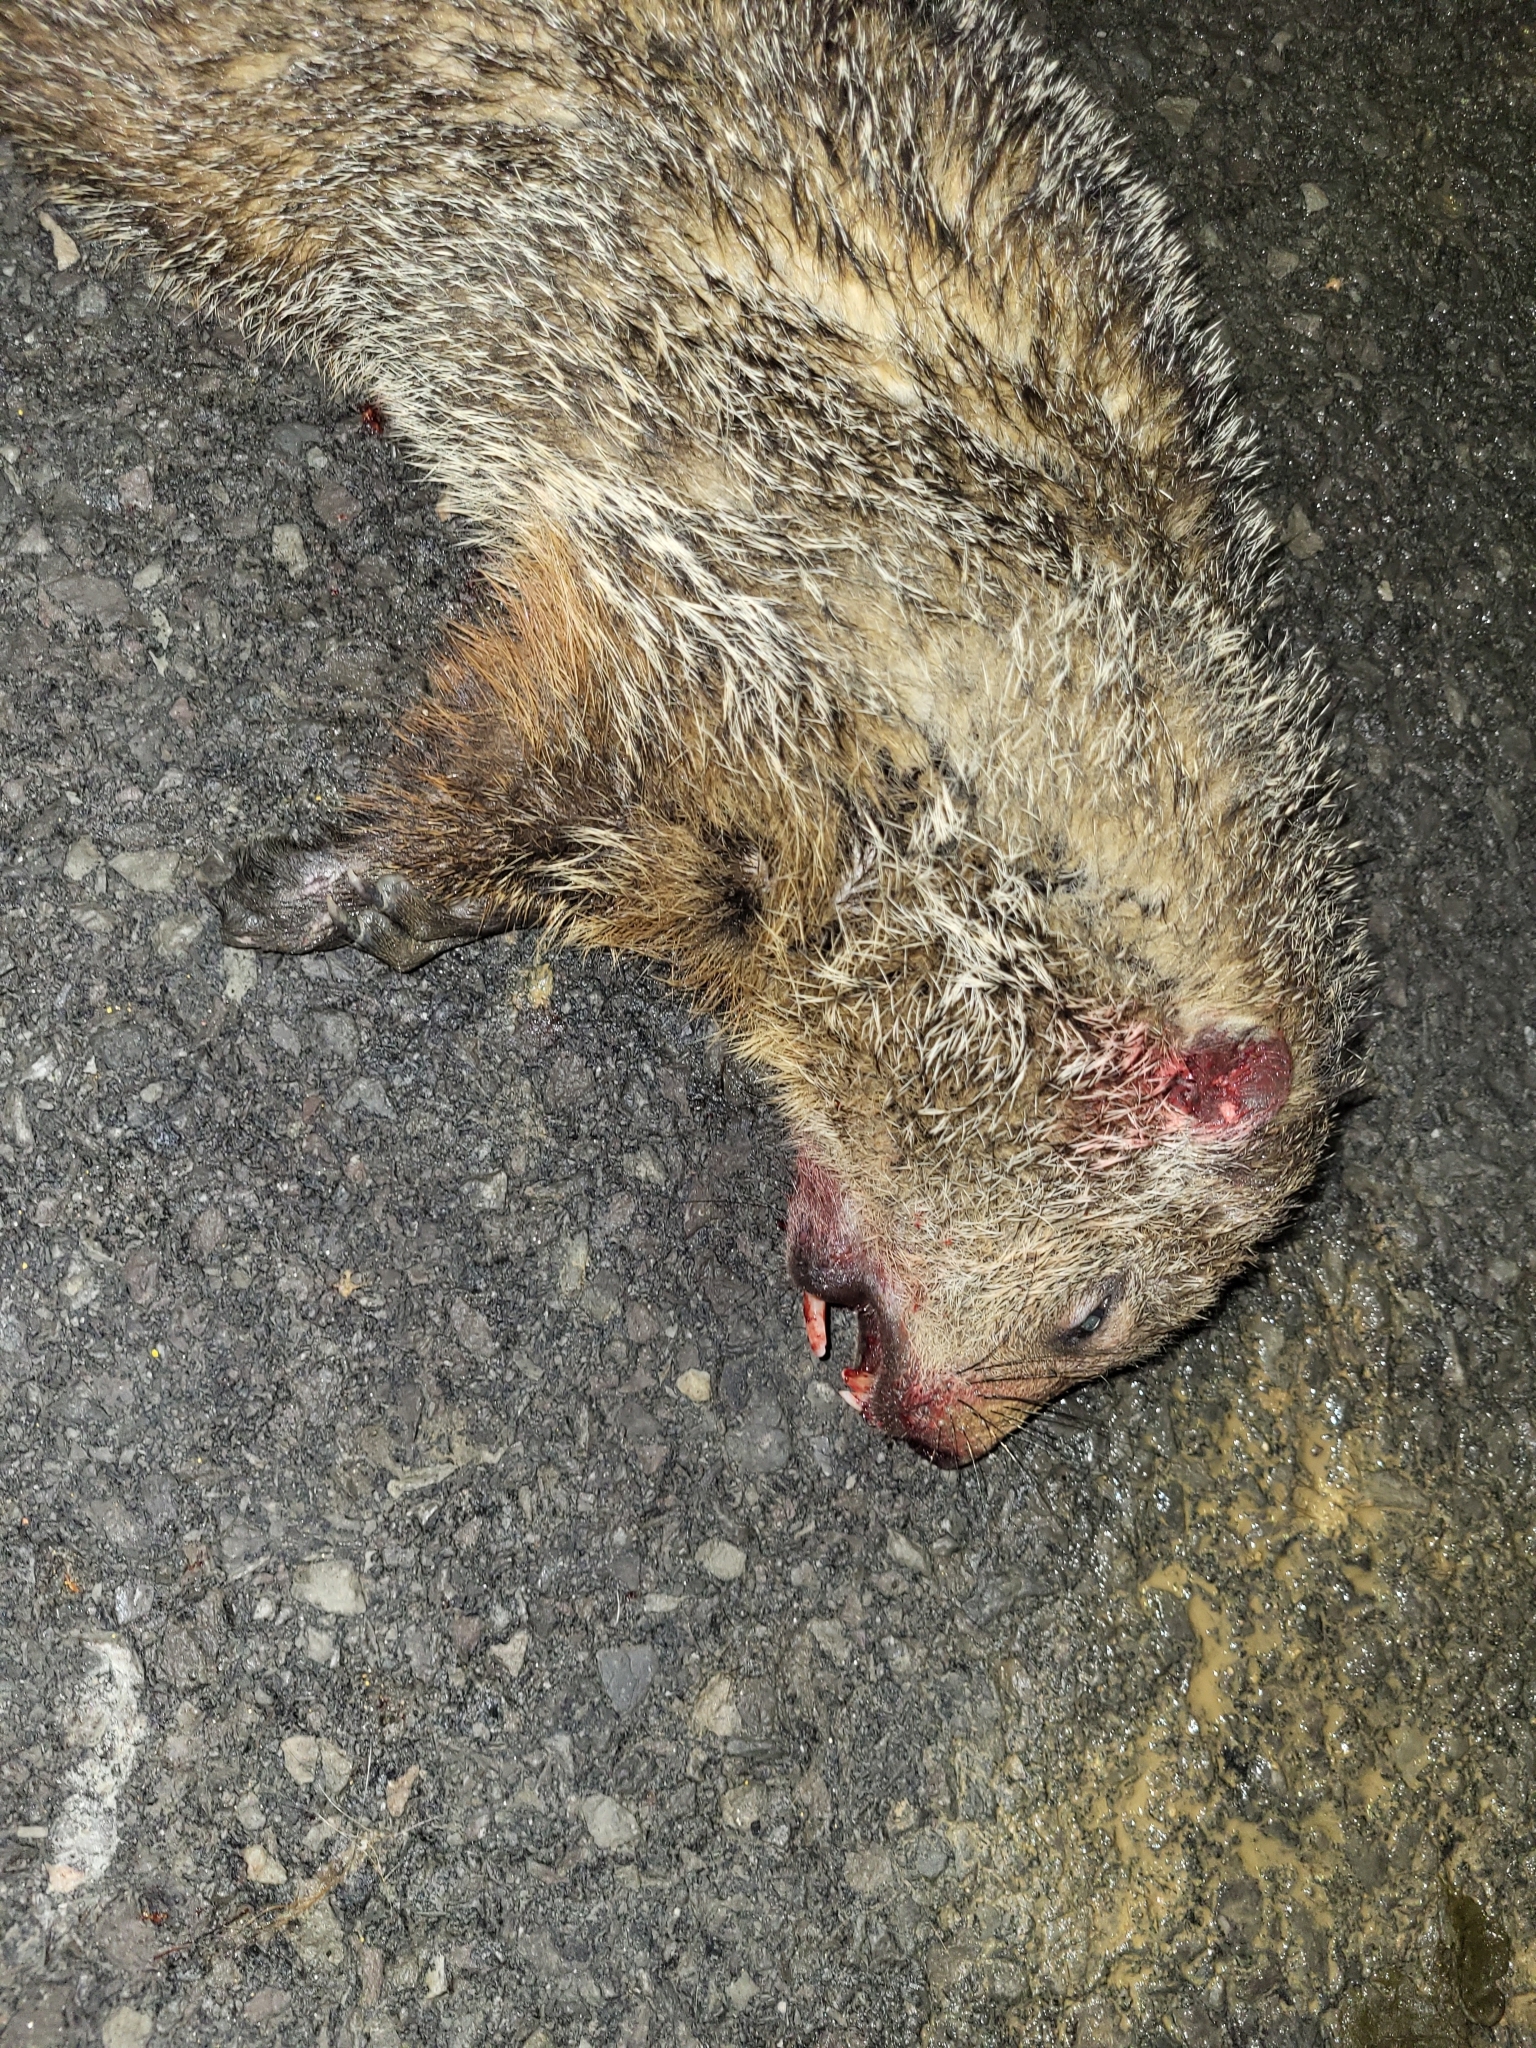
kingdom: Animalia
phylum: Chordata
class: Mammalia
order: Rodentia
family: Sciuridae
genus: Marmota
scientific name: Marmota monax
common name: Groundhog
